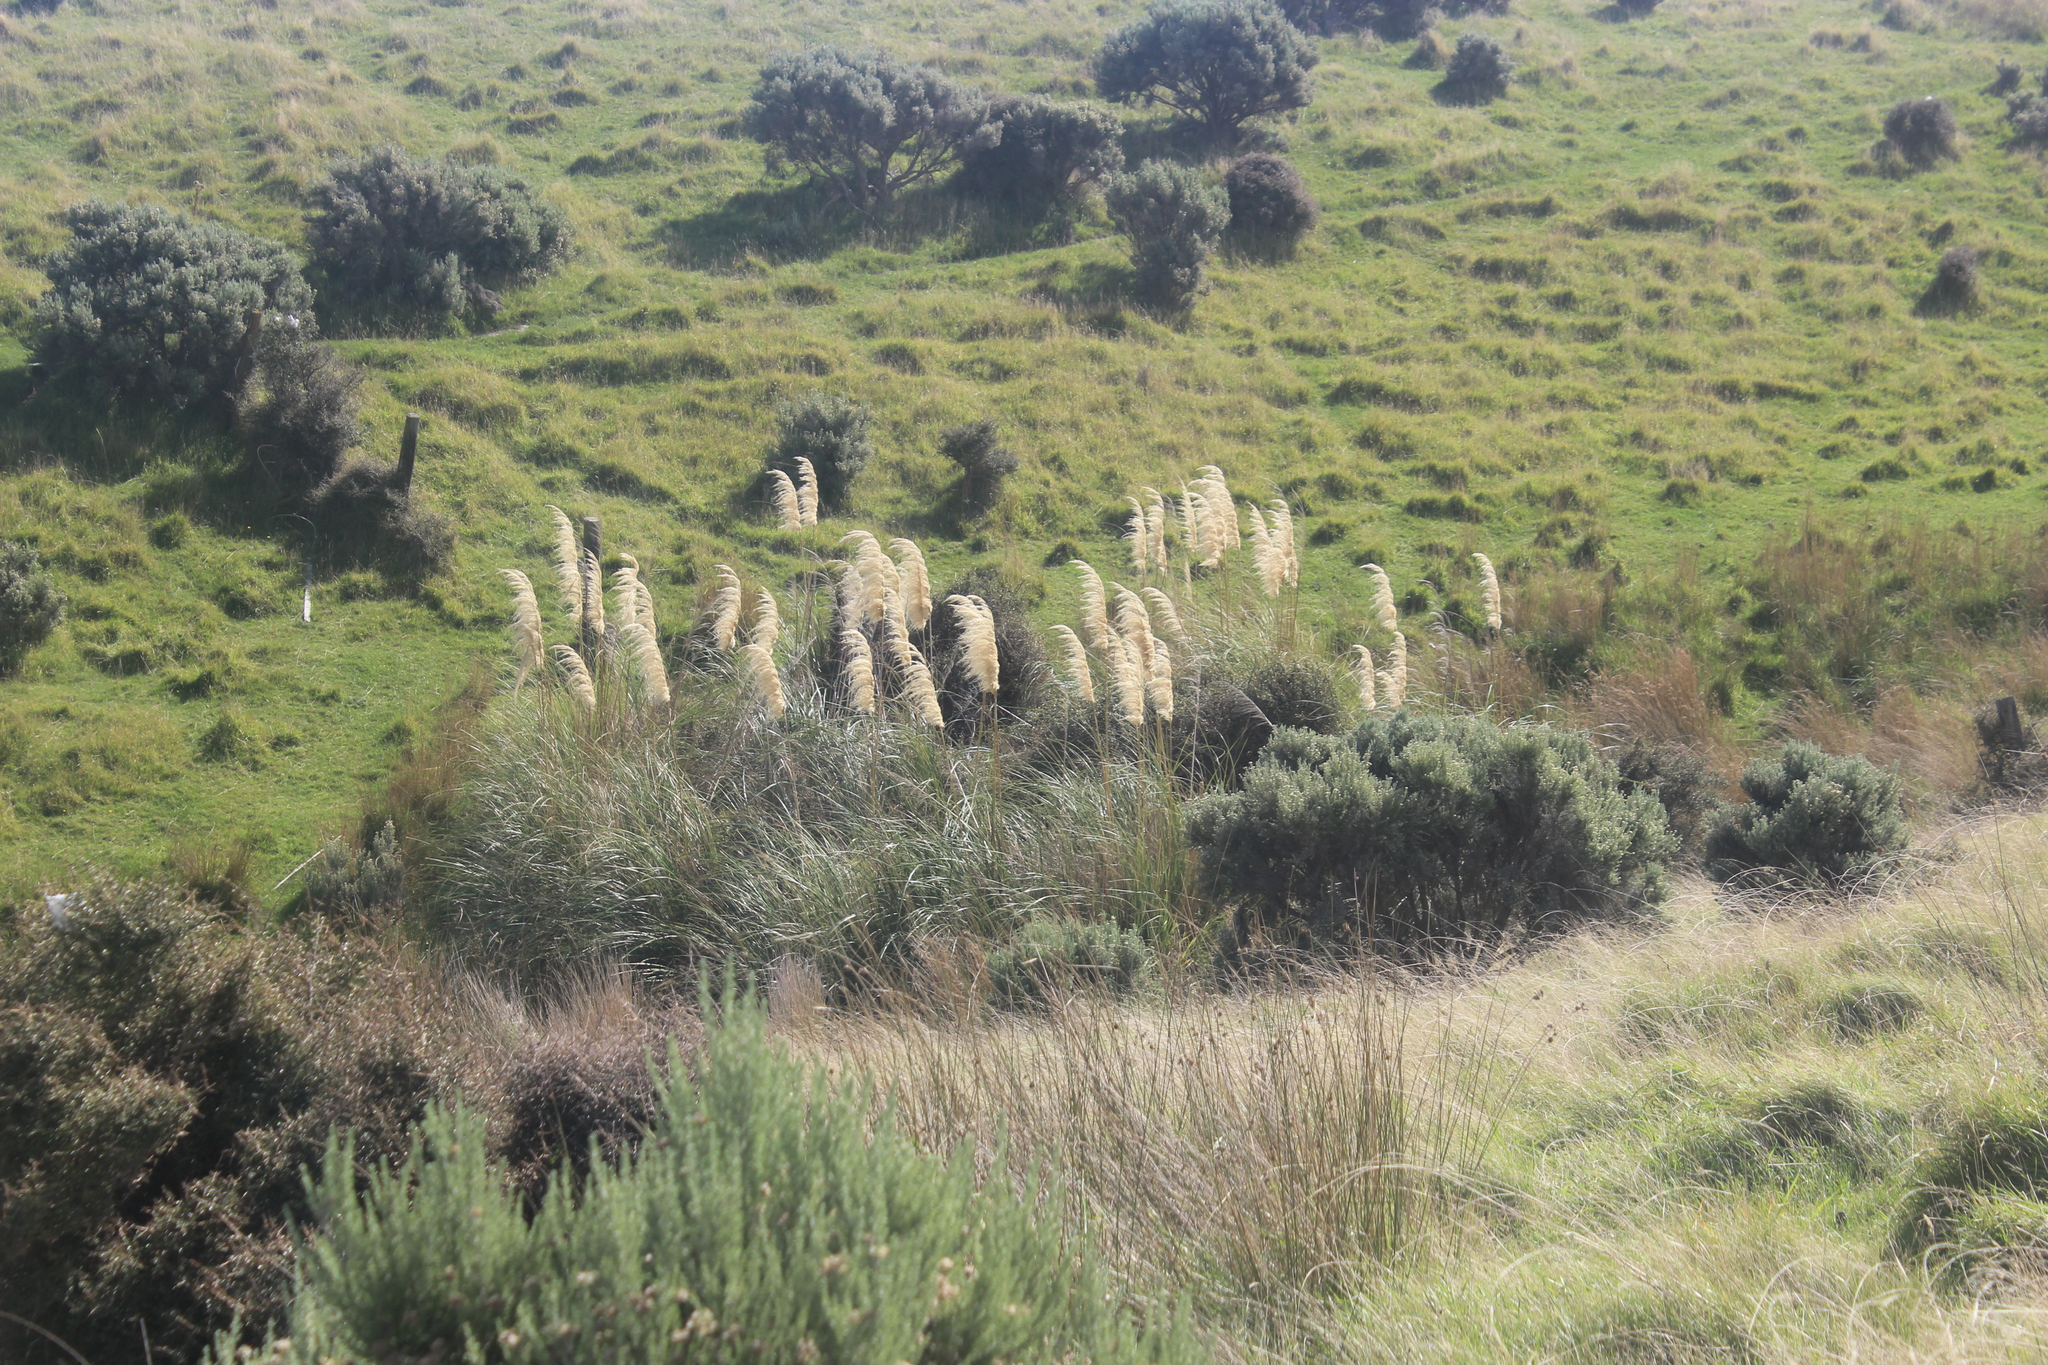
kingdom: Plantae
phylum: Tracheophyta
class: Liliopsida
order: Poales
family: Poaceae
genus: Cortaderia
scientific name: Cortaderia selloana
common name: Uruguayan pampas grass
